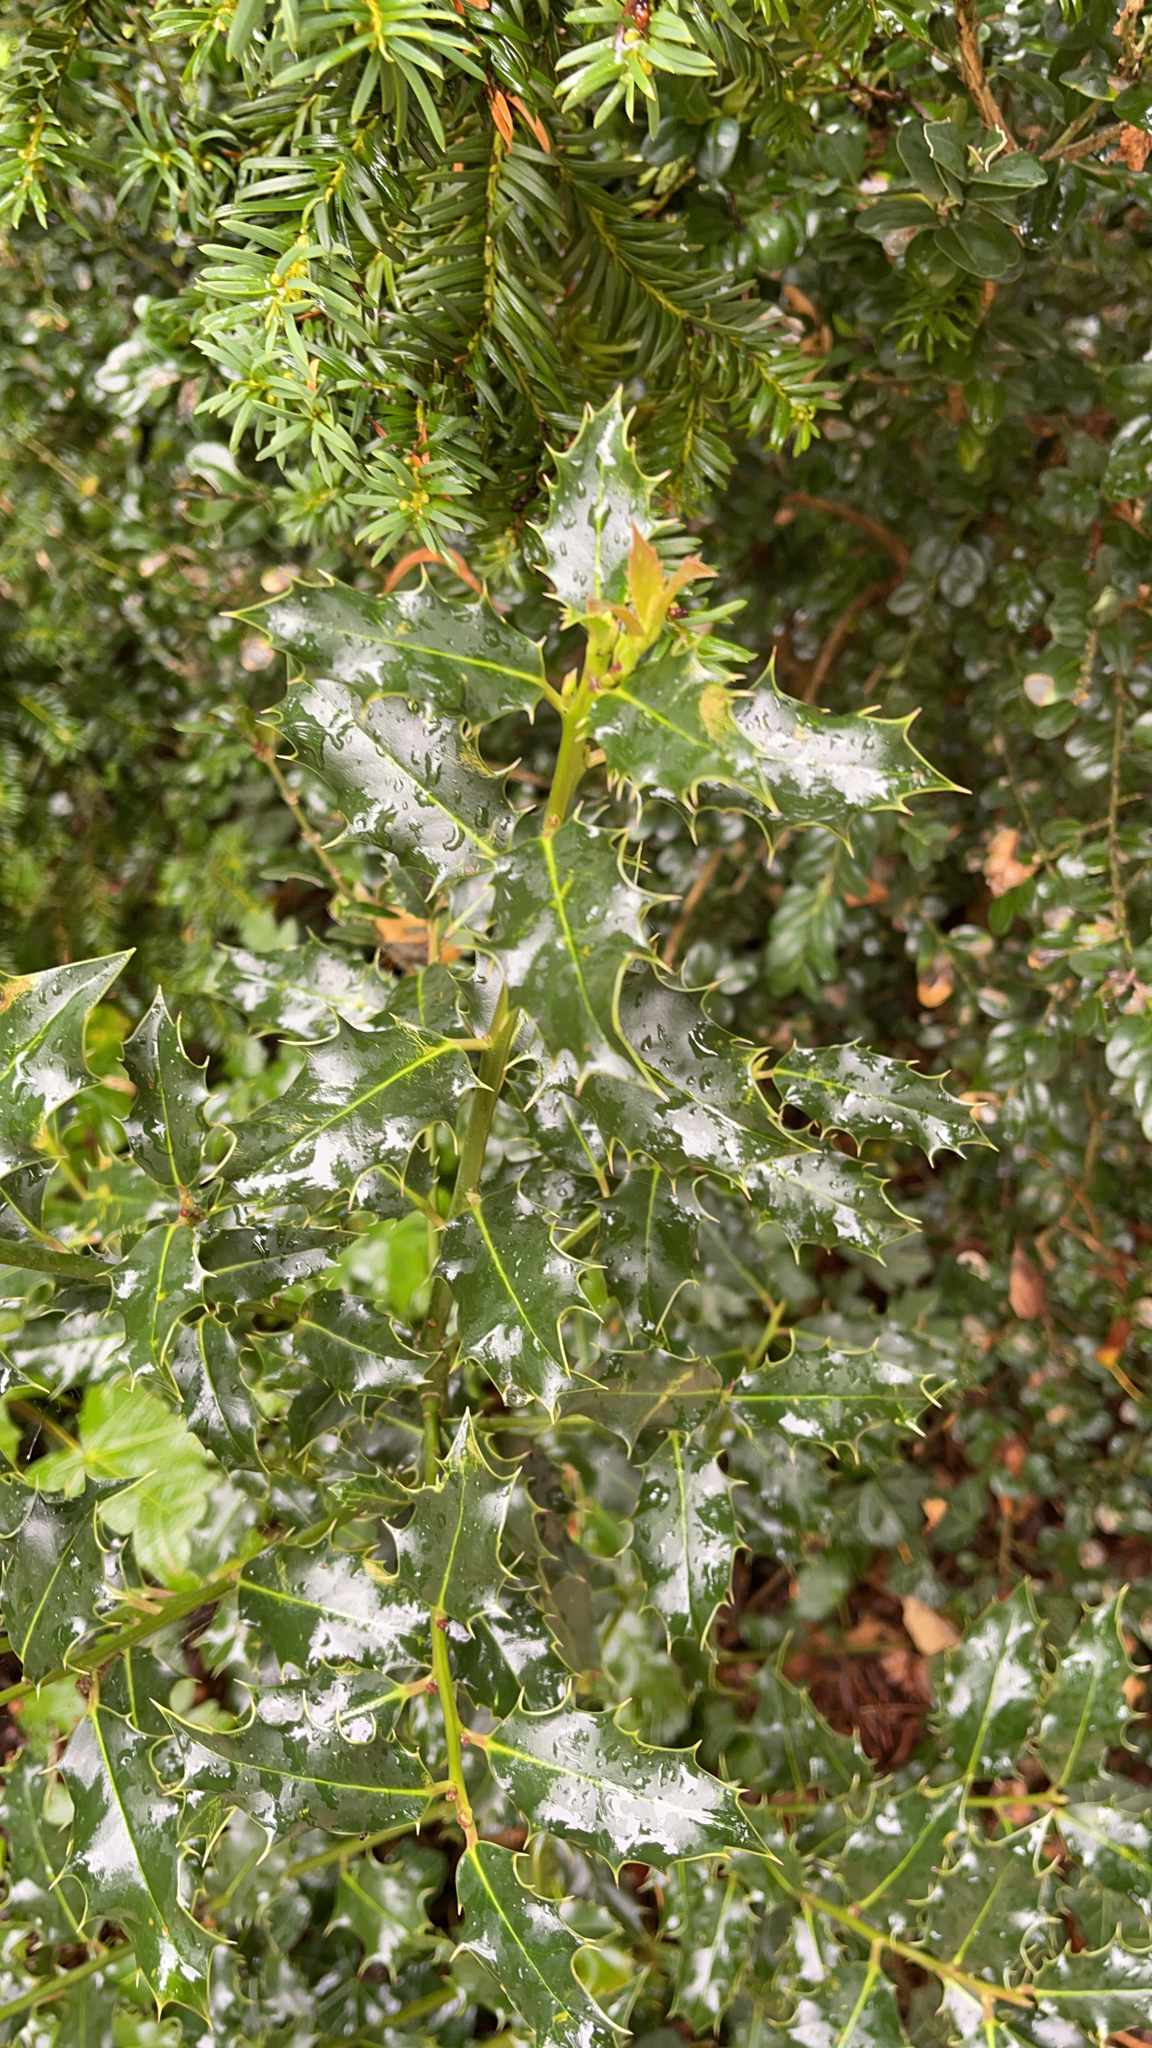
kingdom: Plantae
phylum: Tracheophyta
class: Magnoliopsida
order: Aquifoliales
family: Aquifoliaceae
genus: Ilex
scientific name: Ilex aquifolium
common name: English holly
